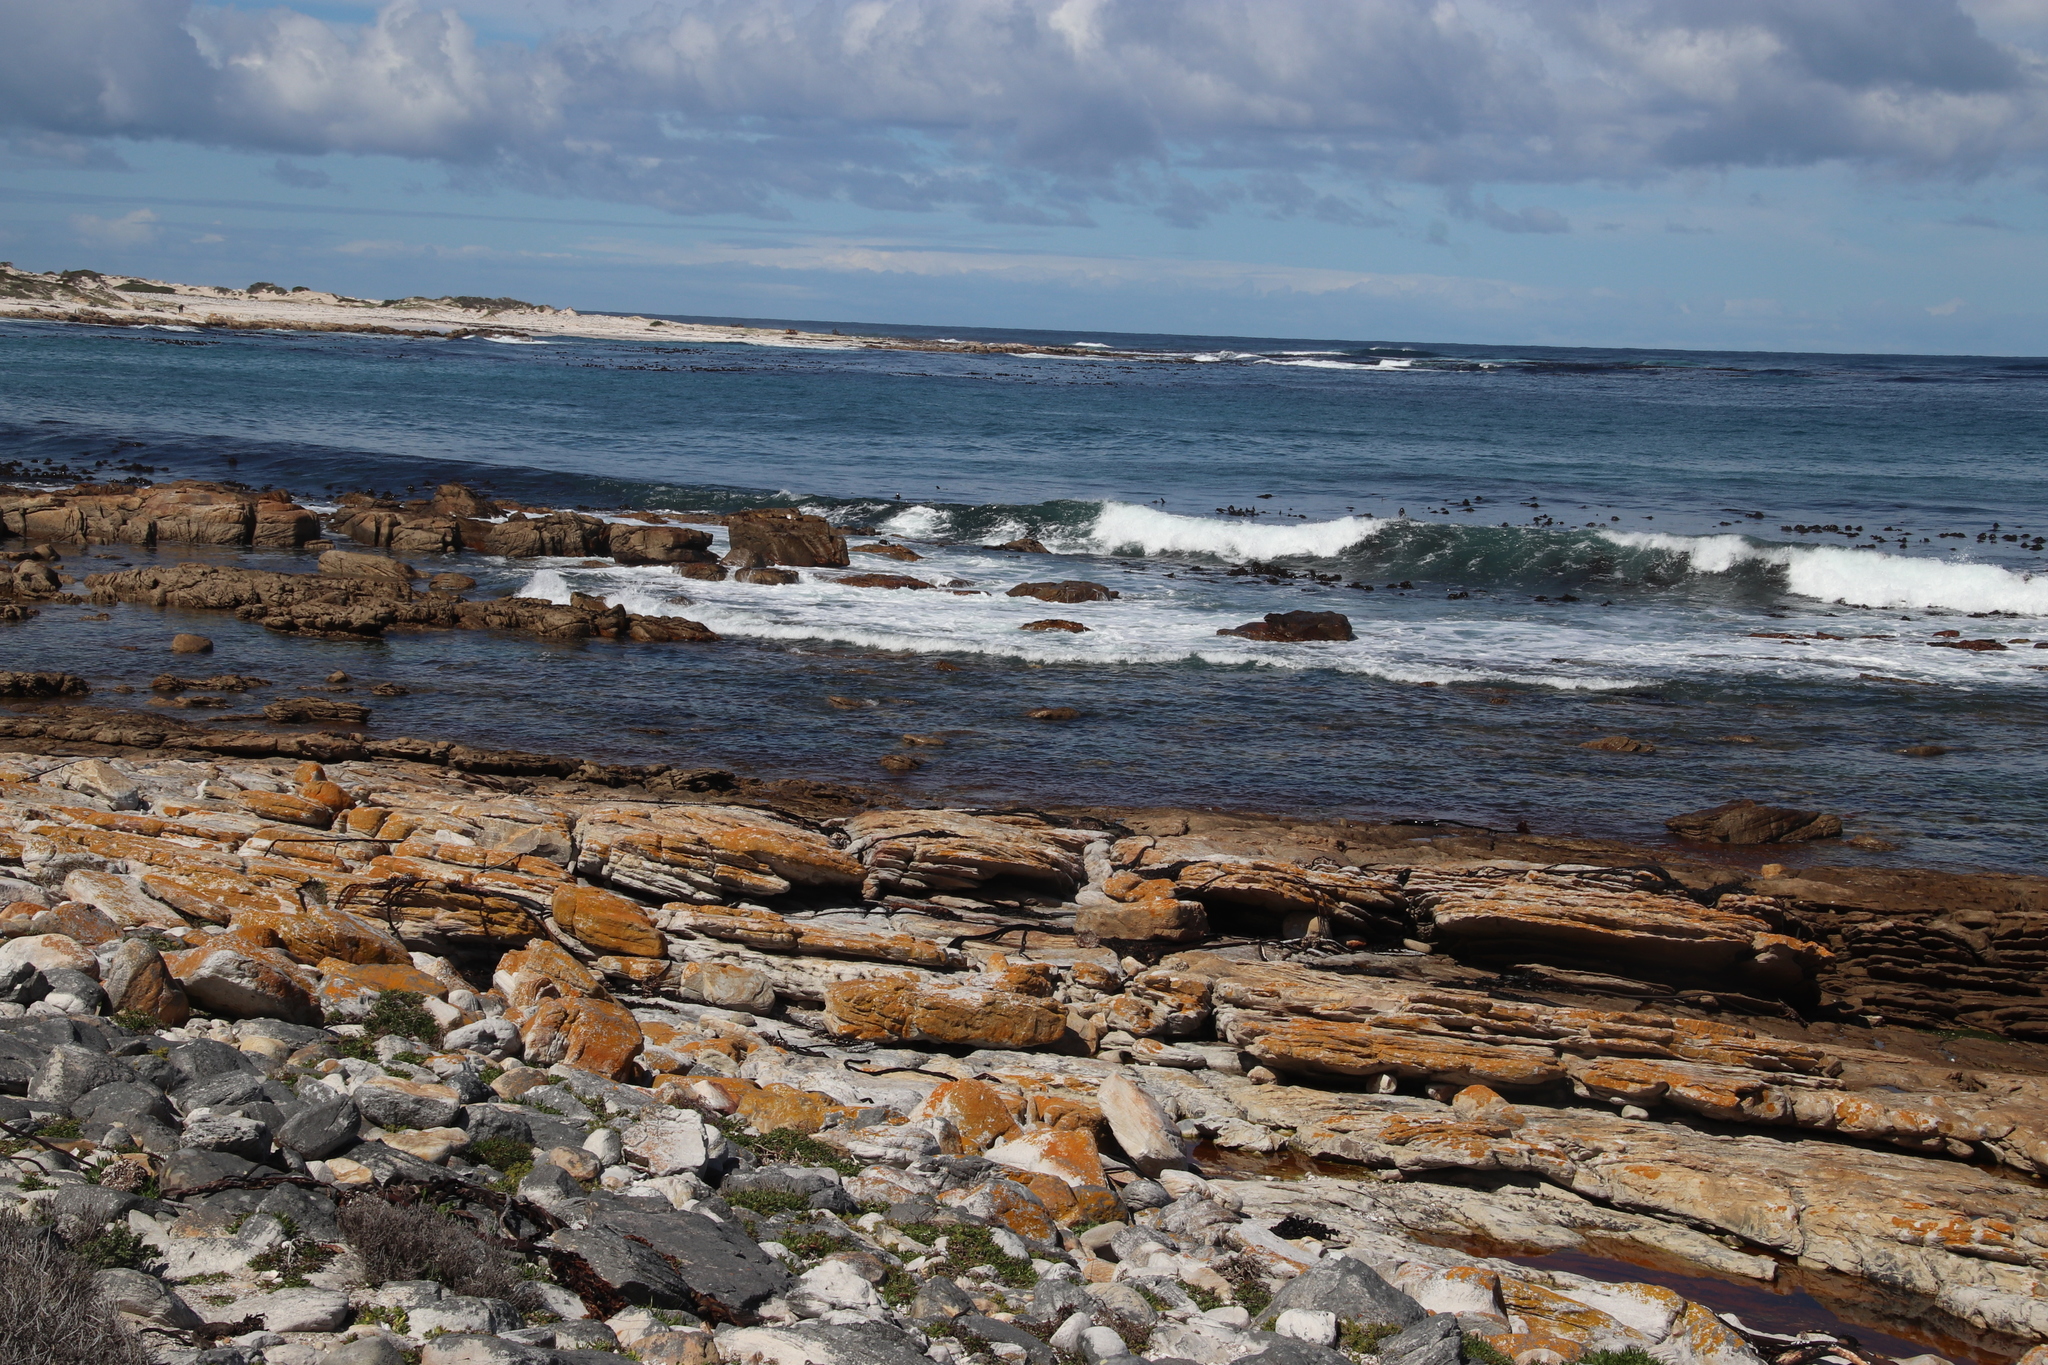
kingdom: Chromista
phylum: Ochrophyta
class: Phaeophyceae
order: Laminariales
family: Lessoniaceae
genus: Ecklonia
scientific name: Ecklonia
